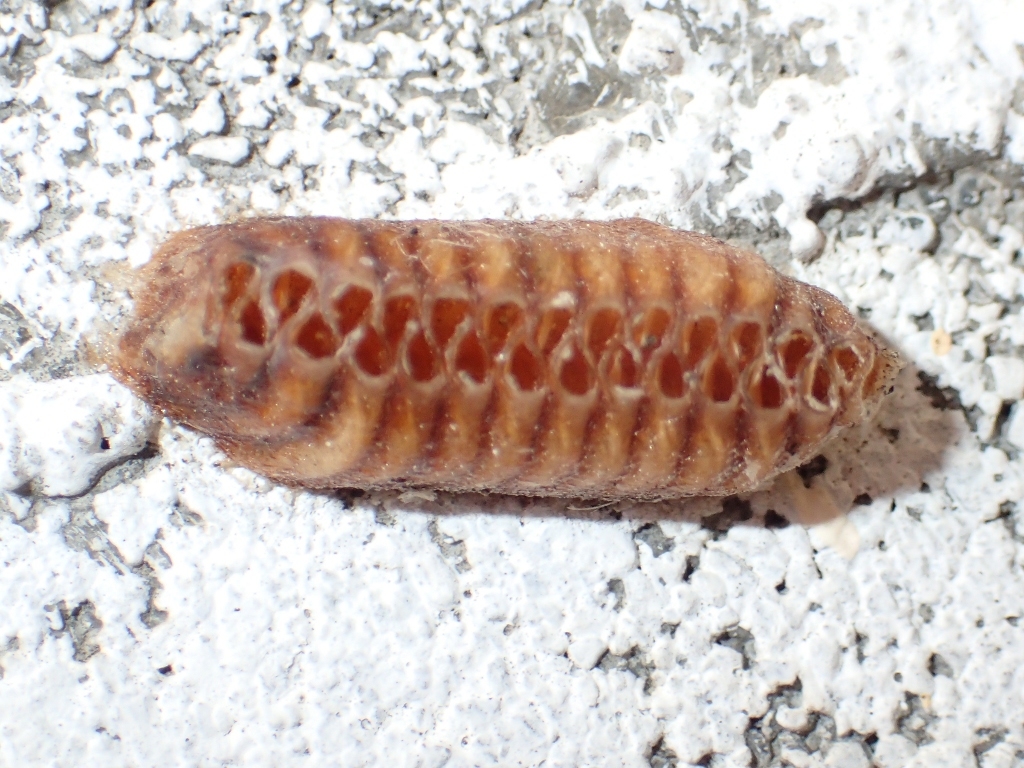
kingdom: Animalia
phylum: Arthropoda
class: Insecta
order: Mantodea
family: Mantidae
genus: Orthodera
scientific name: Orthodera novaezealandiae
